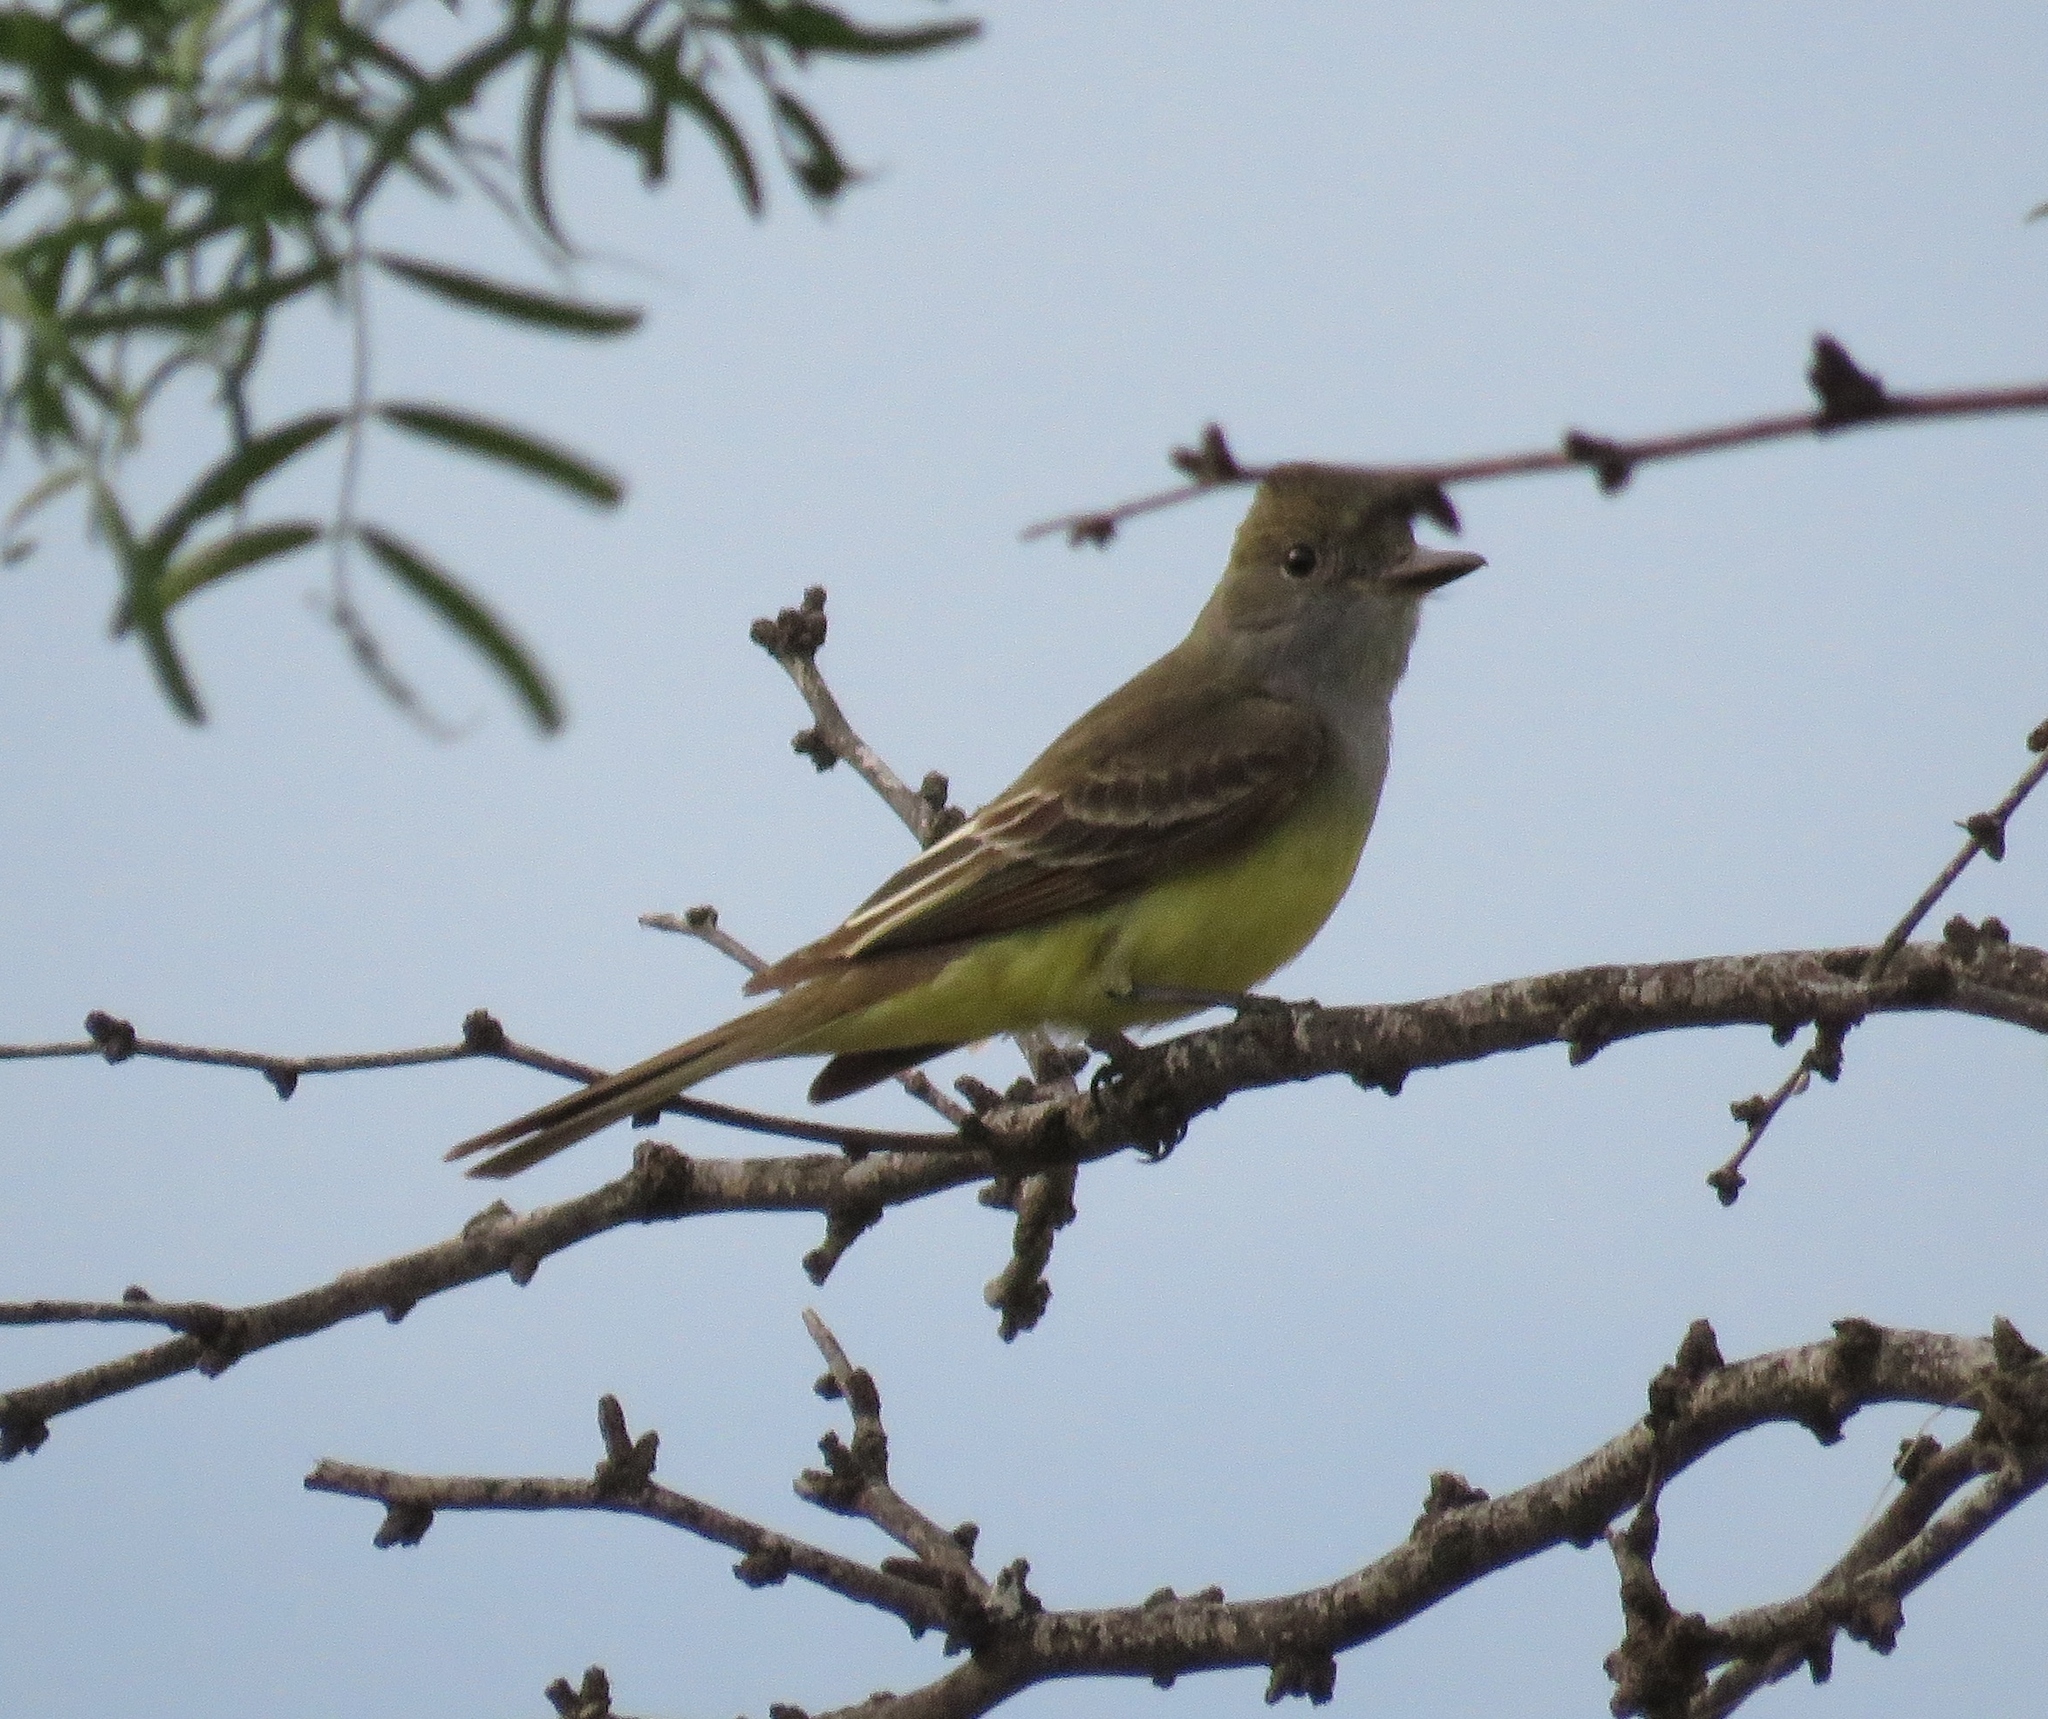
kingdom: Animalia
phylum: Chordata
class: Aves
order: Passeriformes
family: Tyrannidae
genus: Myiarchus
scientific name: Myiarchus crinitus
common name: Great crested flycatcher
